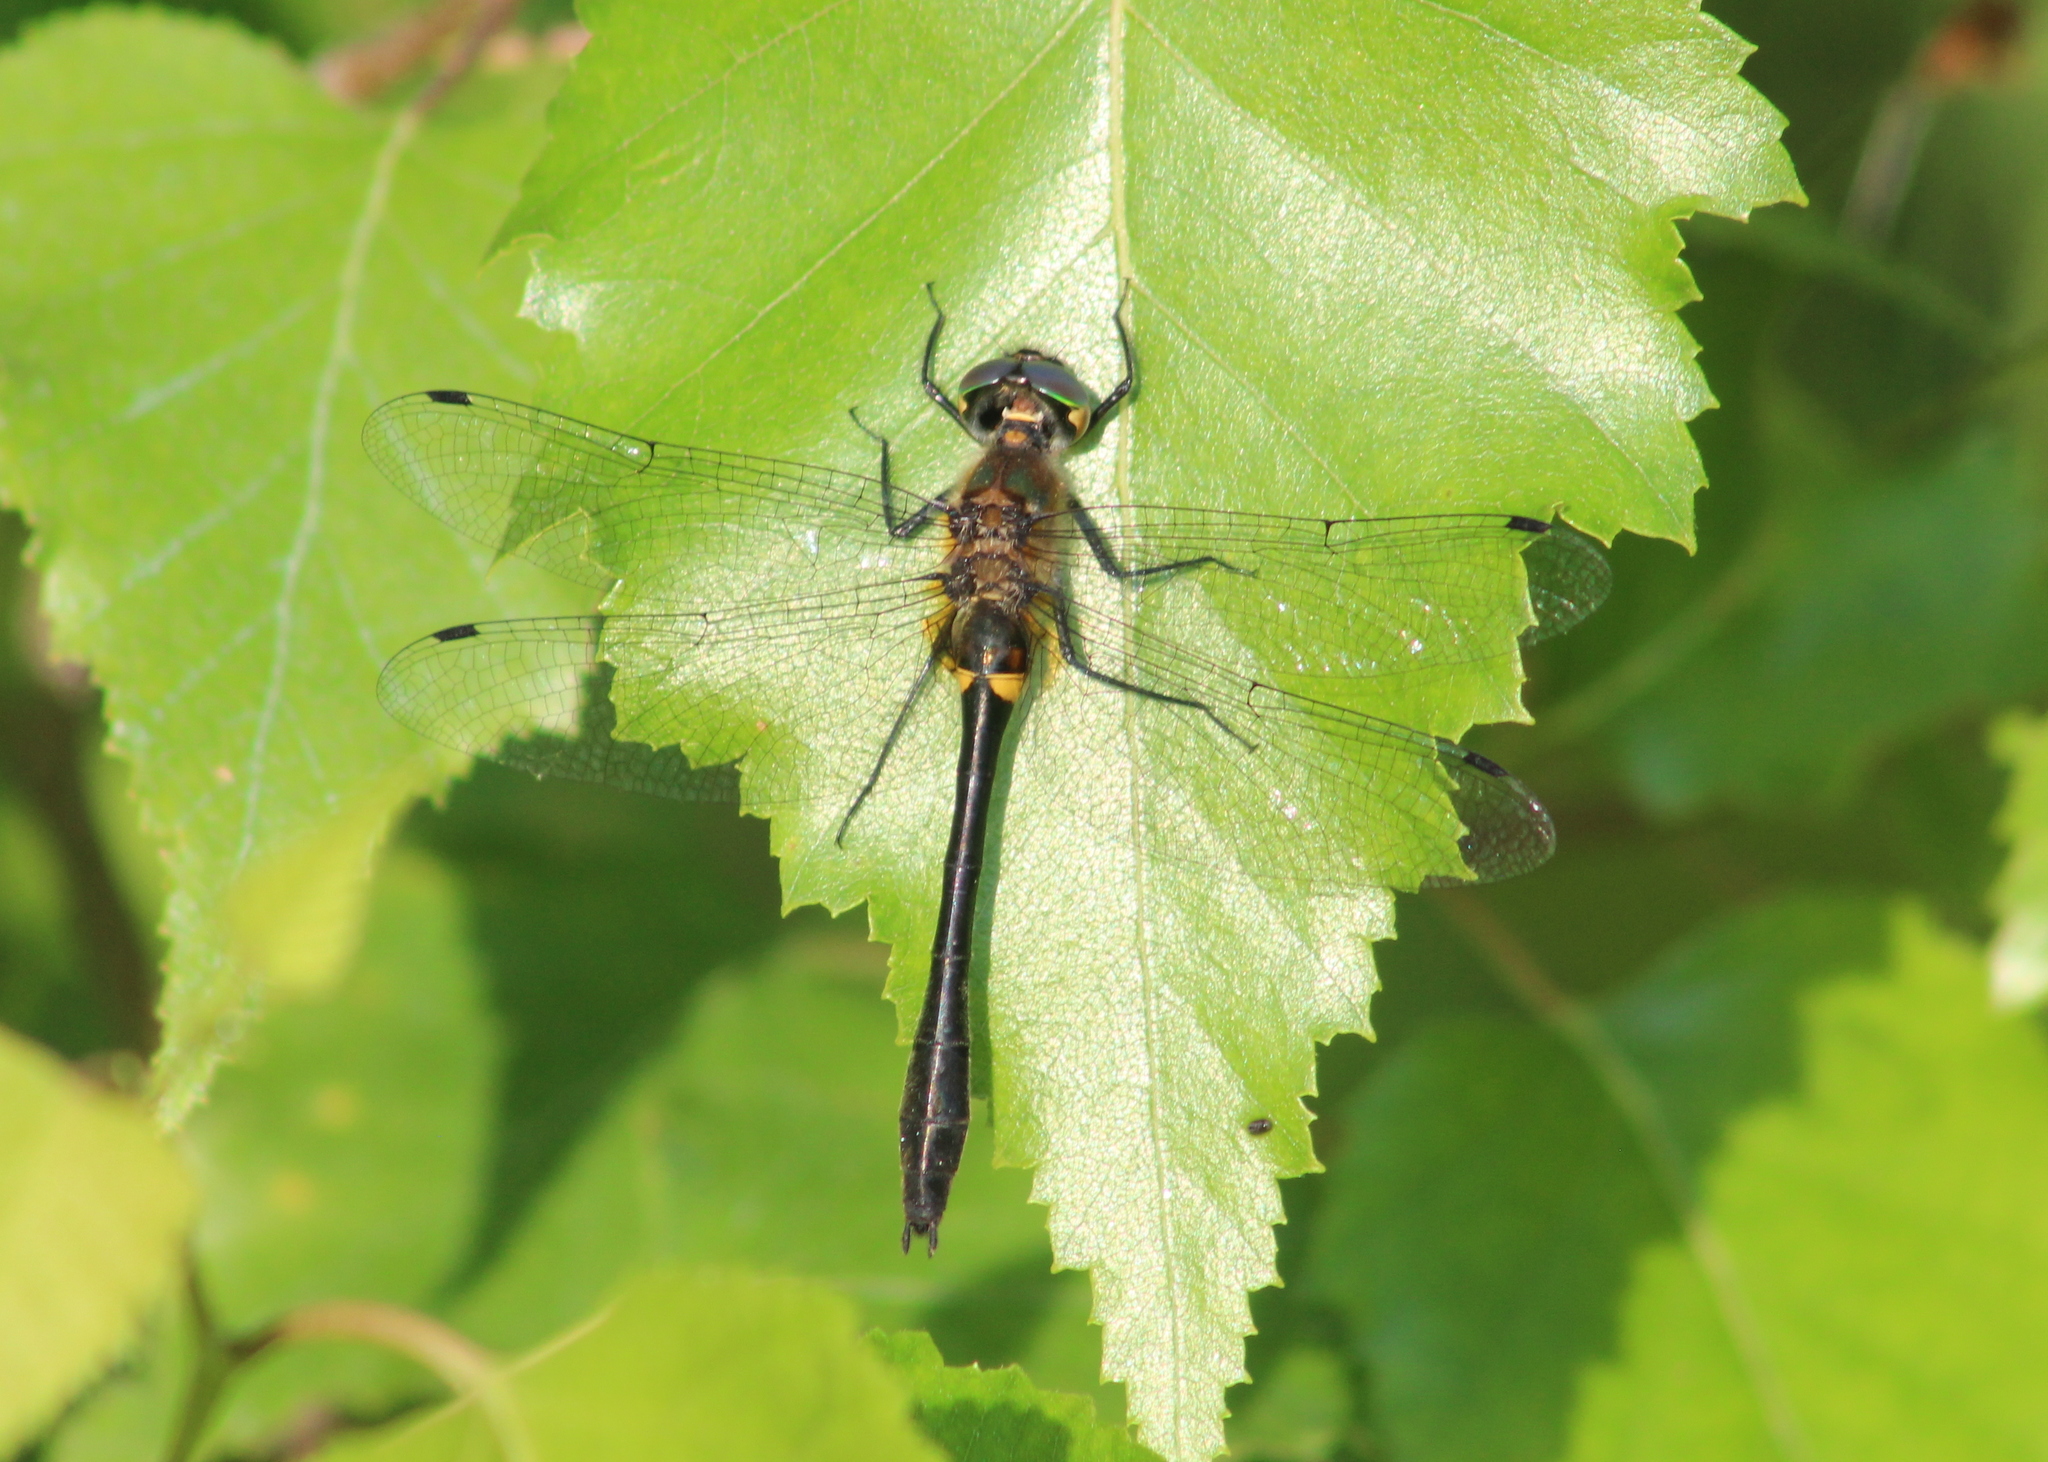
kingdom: Animalia
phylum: Arthropoda
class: Insecta
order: Odonata
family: Corduliidae
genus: Dorocordulia
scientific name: Dorocordulia libera
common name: Racket-tailed emerald
